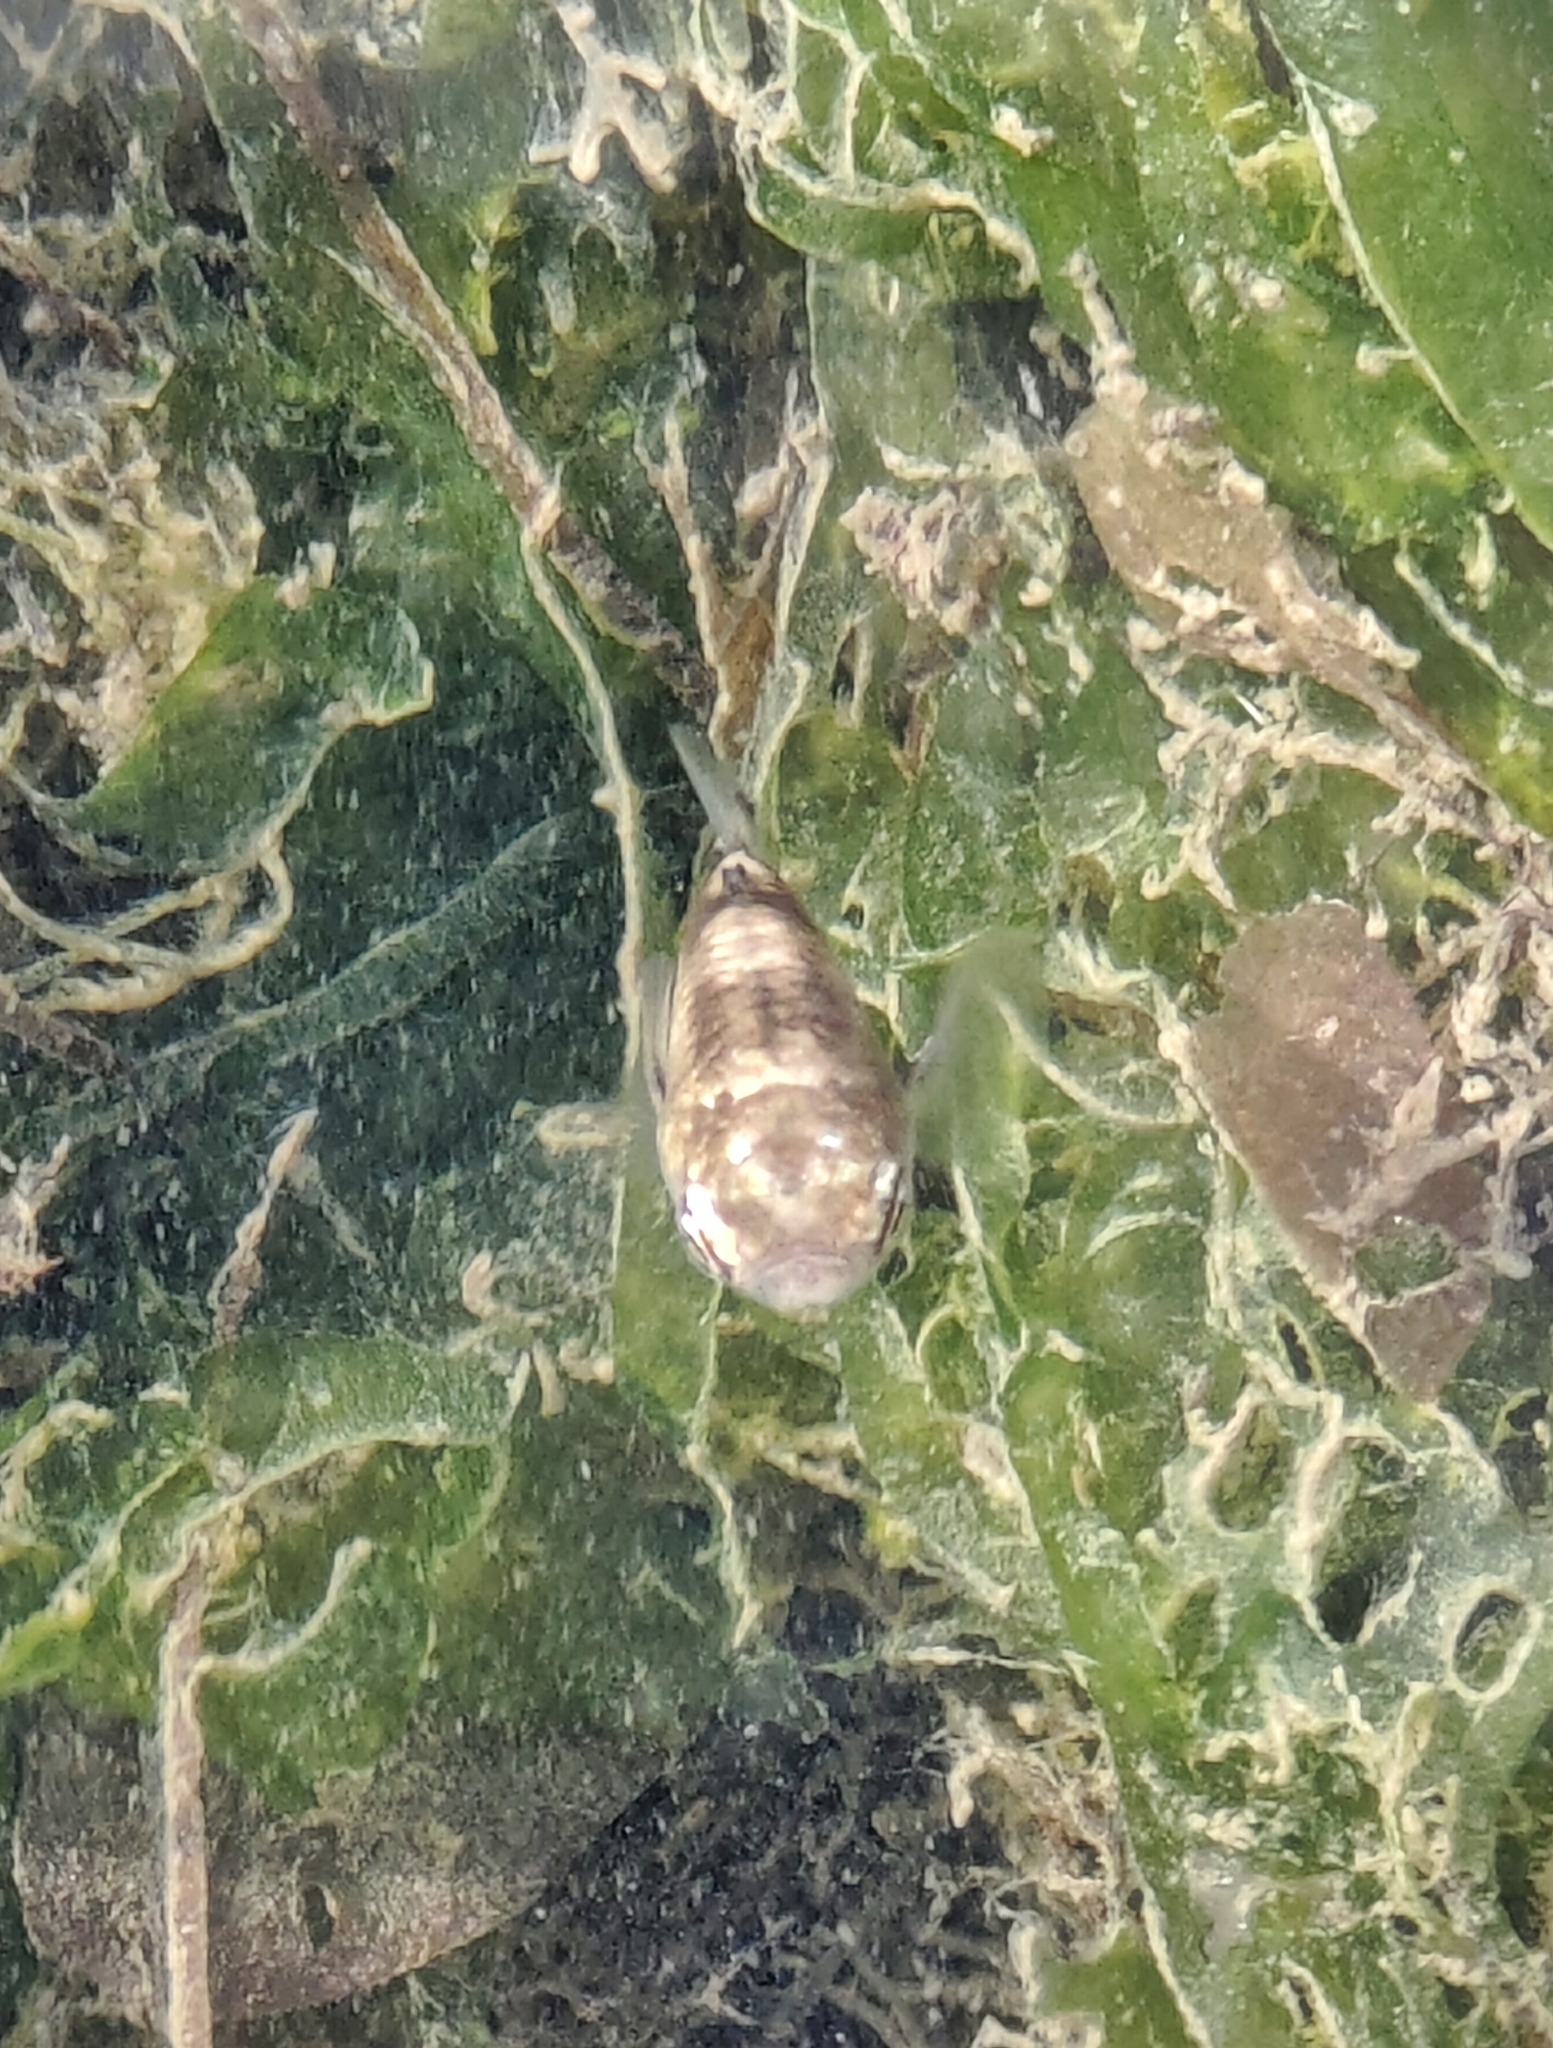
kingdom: Animalia
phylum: Chordata
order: Mugiliformes
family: Mugilidae
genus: Ellochelon
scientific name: Ellochelon vaigiensis
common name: Squaretail mullet
